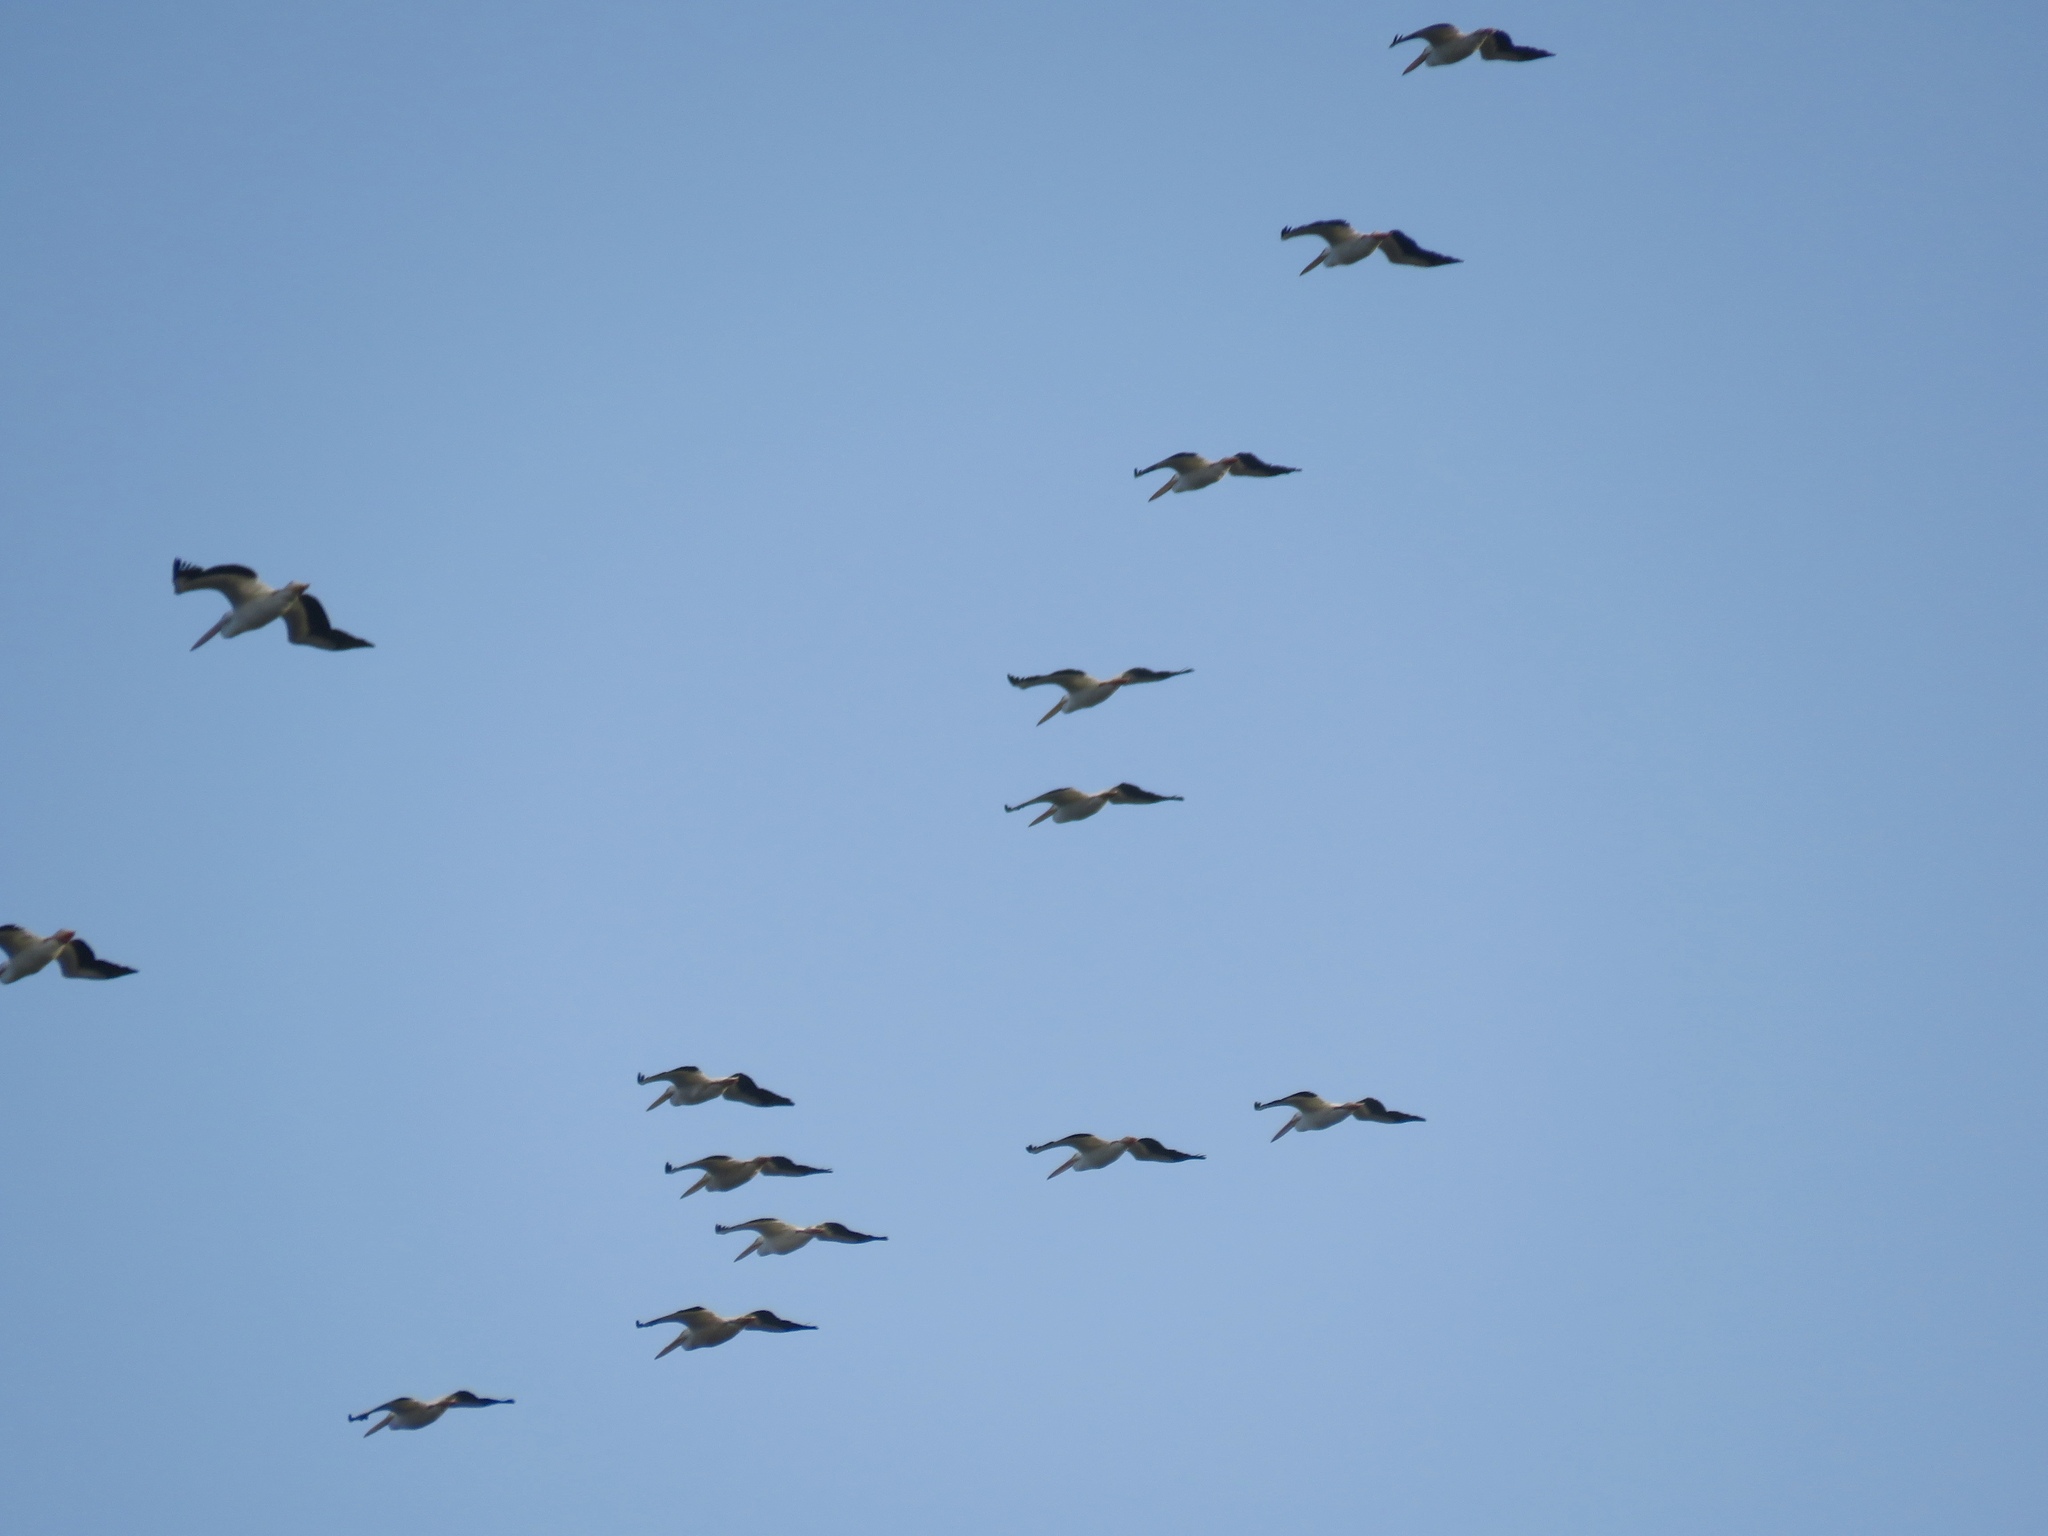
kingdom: Animalia
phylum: Chordata
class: Aves
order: Pelecaniformes
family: Pelecanidae
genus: Pelecanus
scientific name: Pelecanus erythrorhynchos
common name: American white pelican
